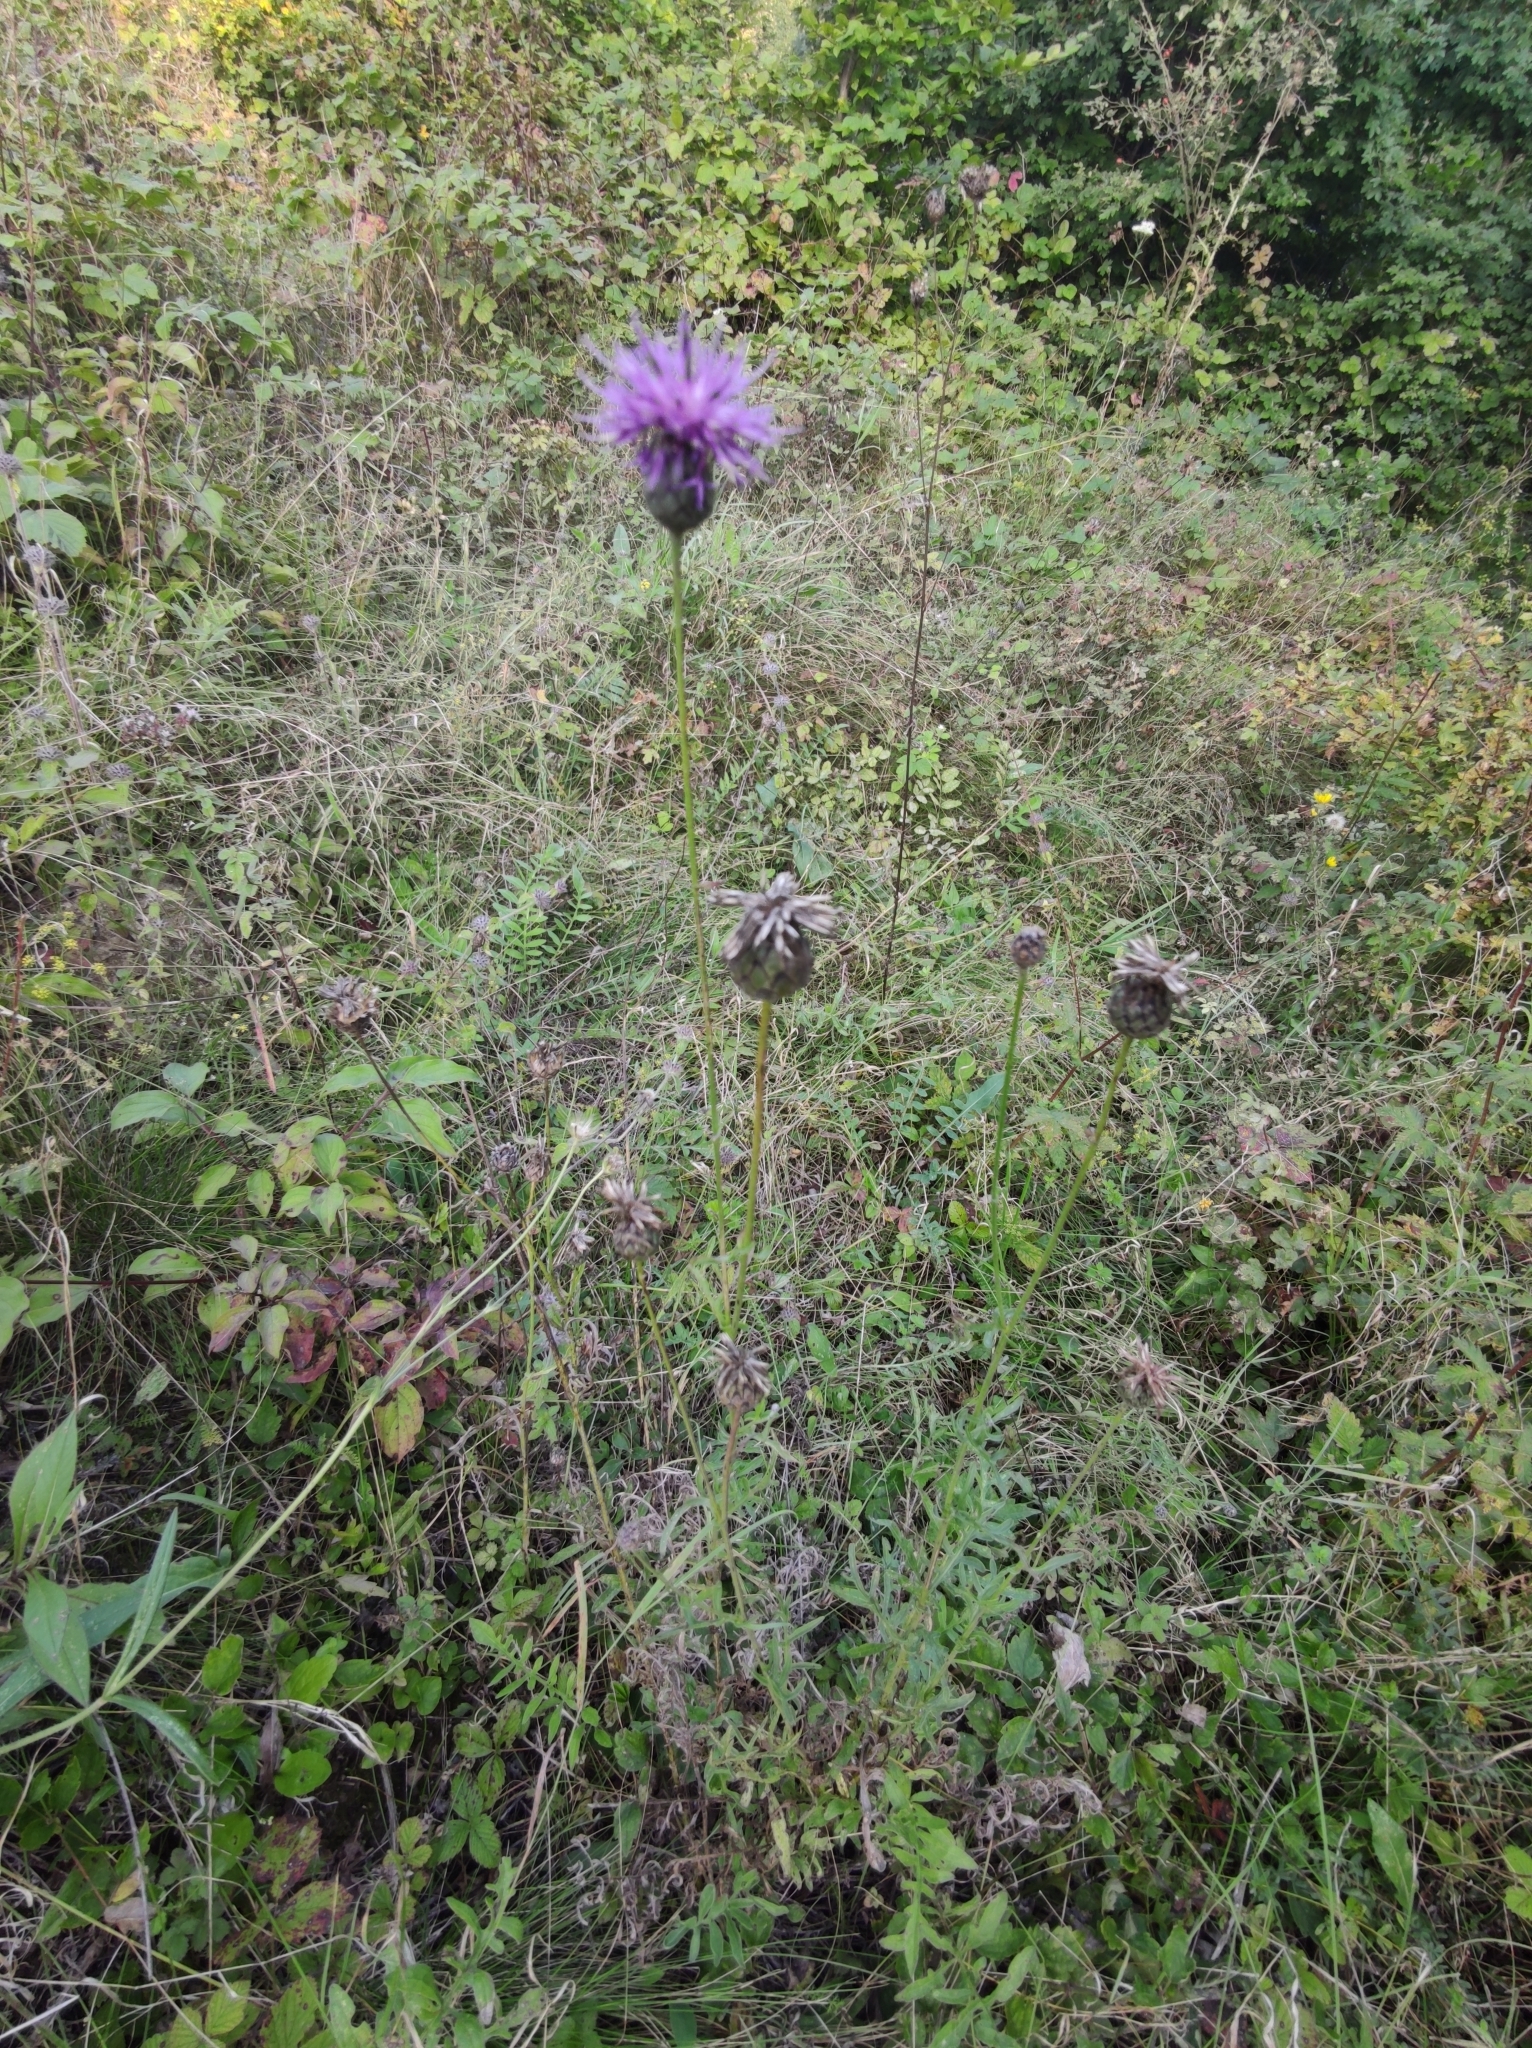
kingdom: Plantae
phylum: Tracheophyta
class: Magnoliopsida
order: Asterales
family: Asteraceae
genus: Centaurea
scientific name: Centaurea scabiosa
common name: Greater knapweed
